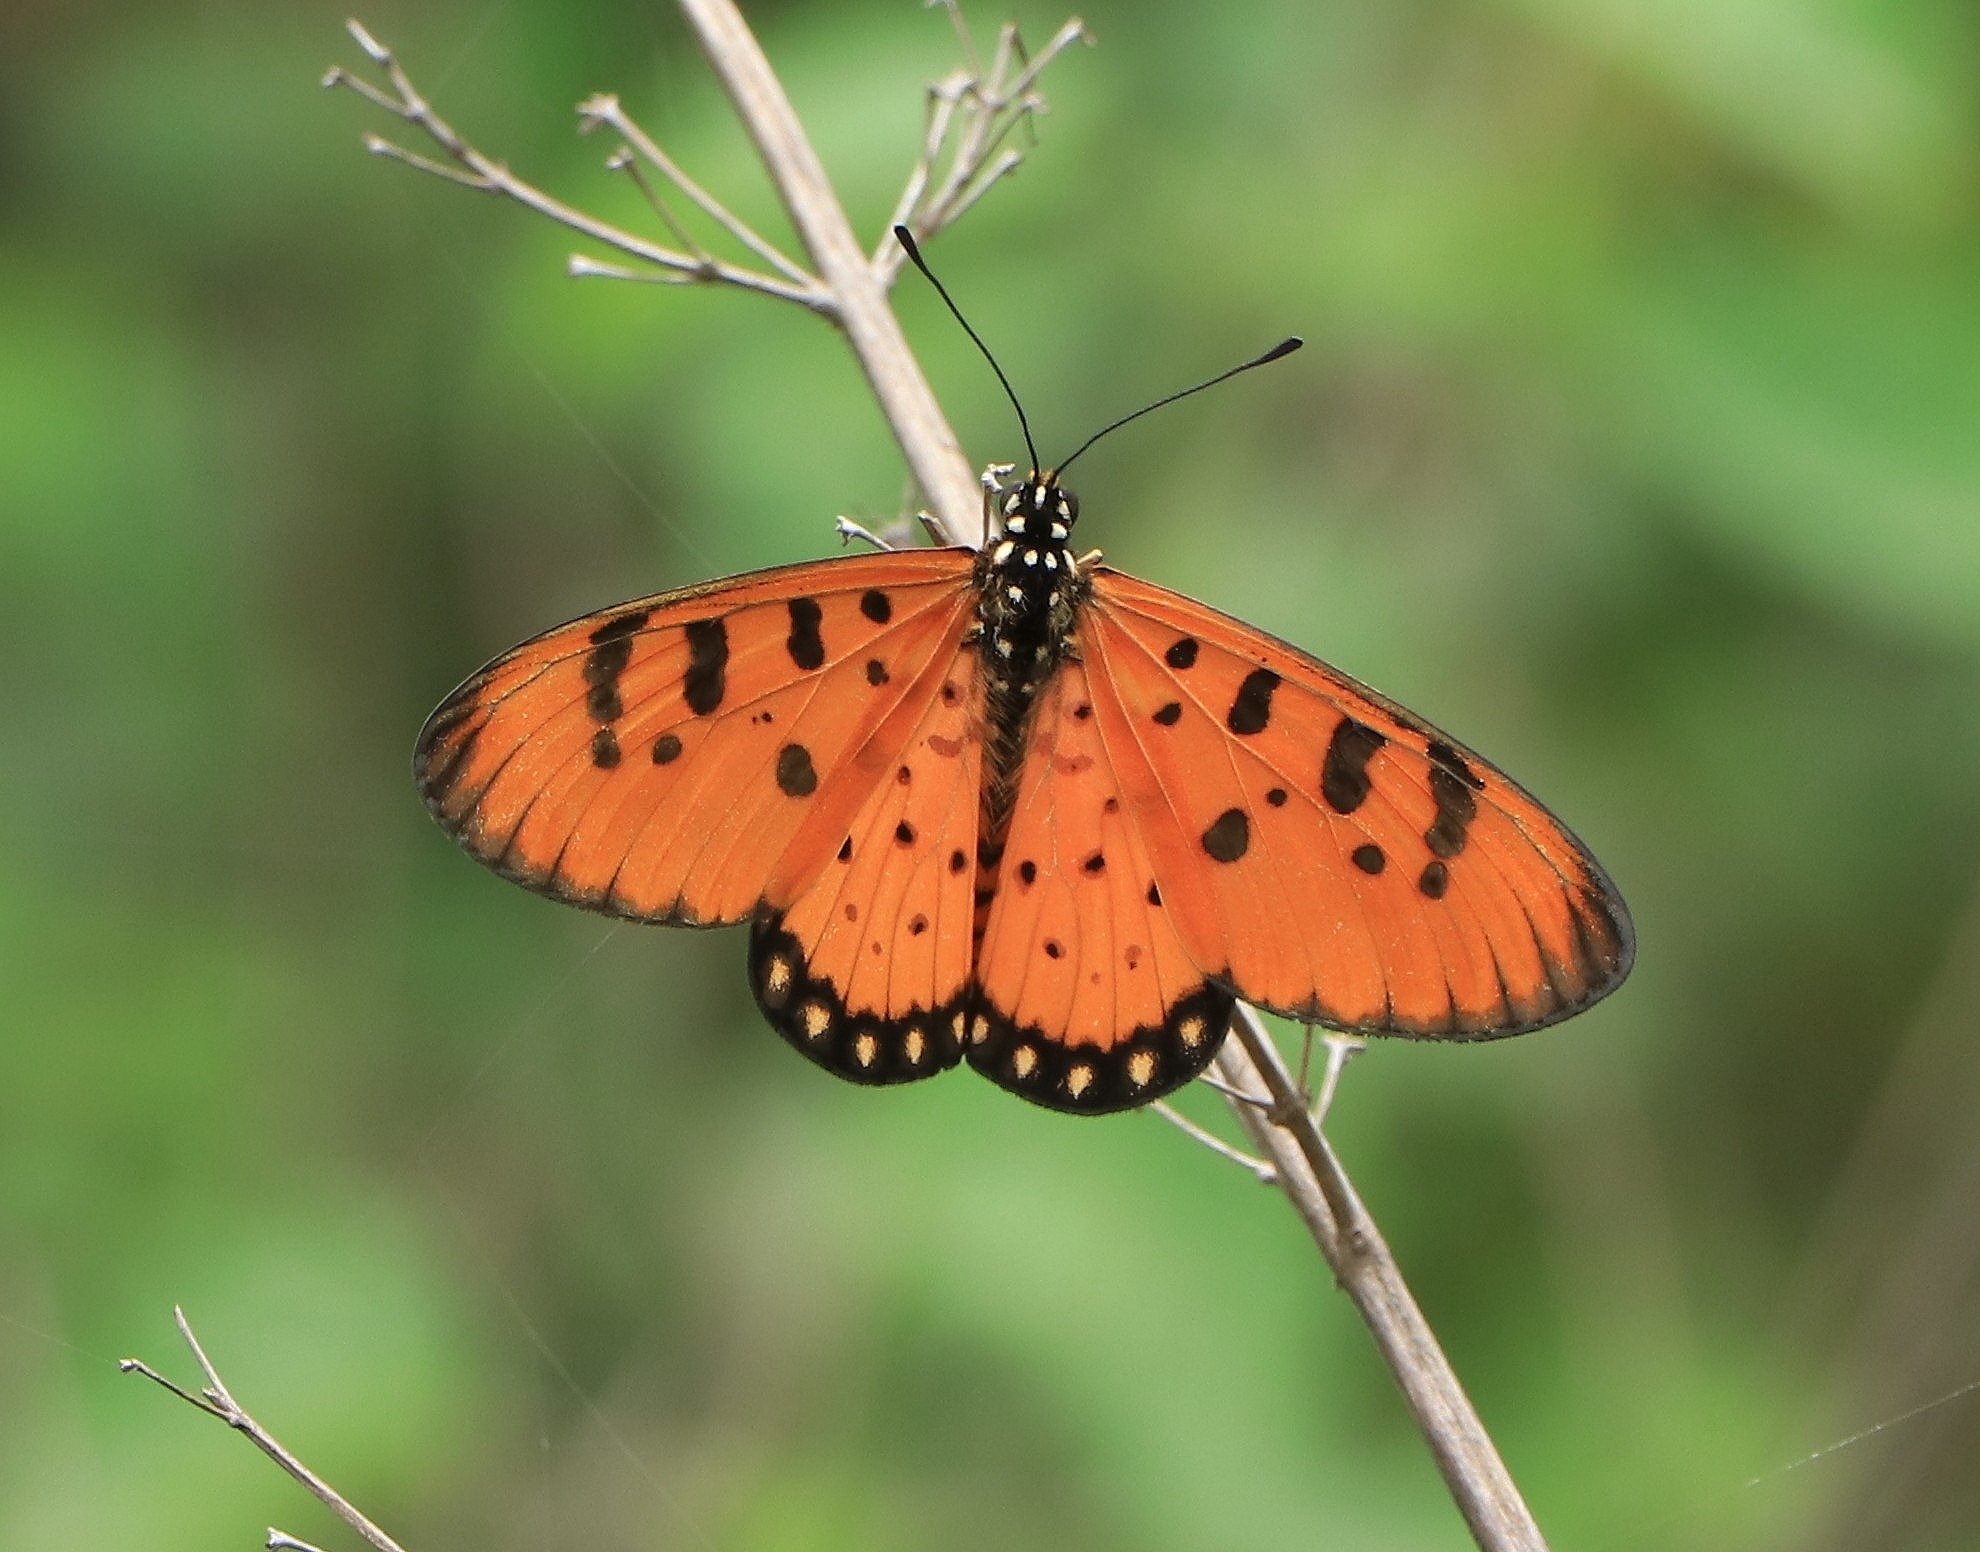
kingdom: Animalia
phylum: Arthropoda
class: Insecta
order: Lepidoptera
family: Nymphalidae
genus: Acraea
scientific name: Acraea terpsicore
